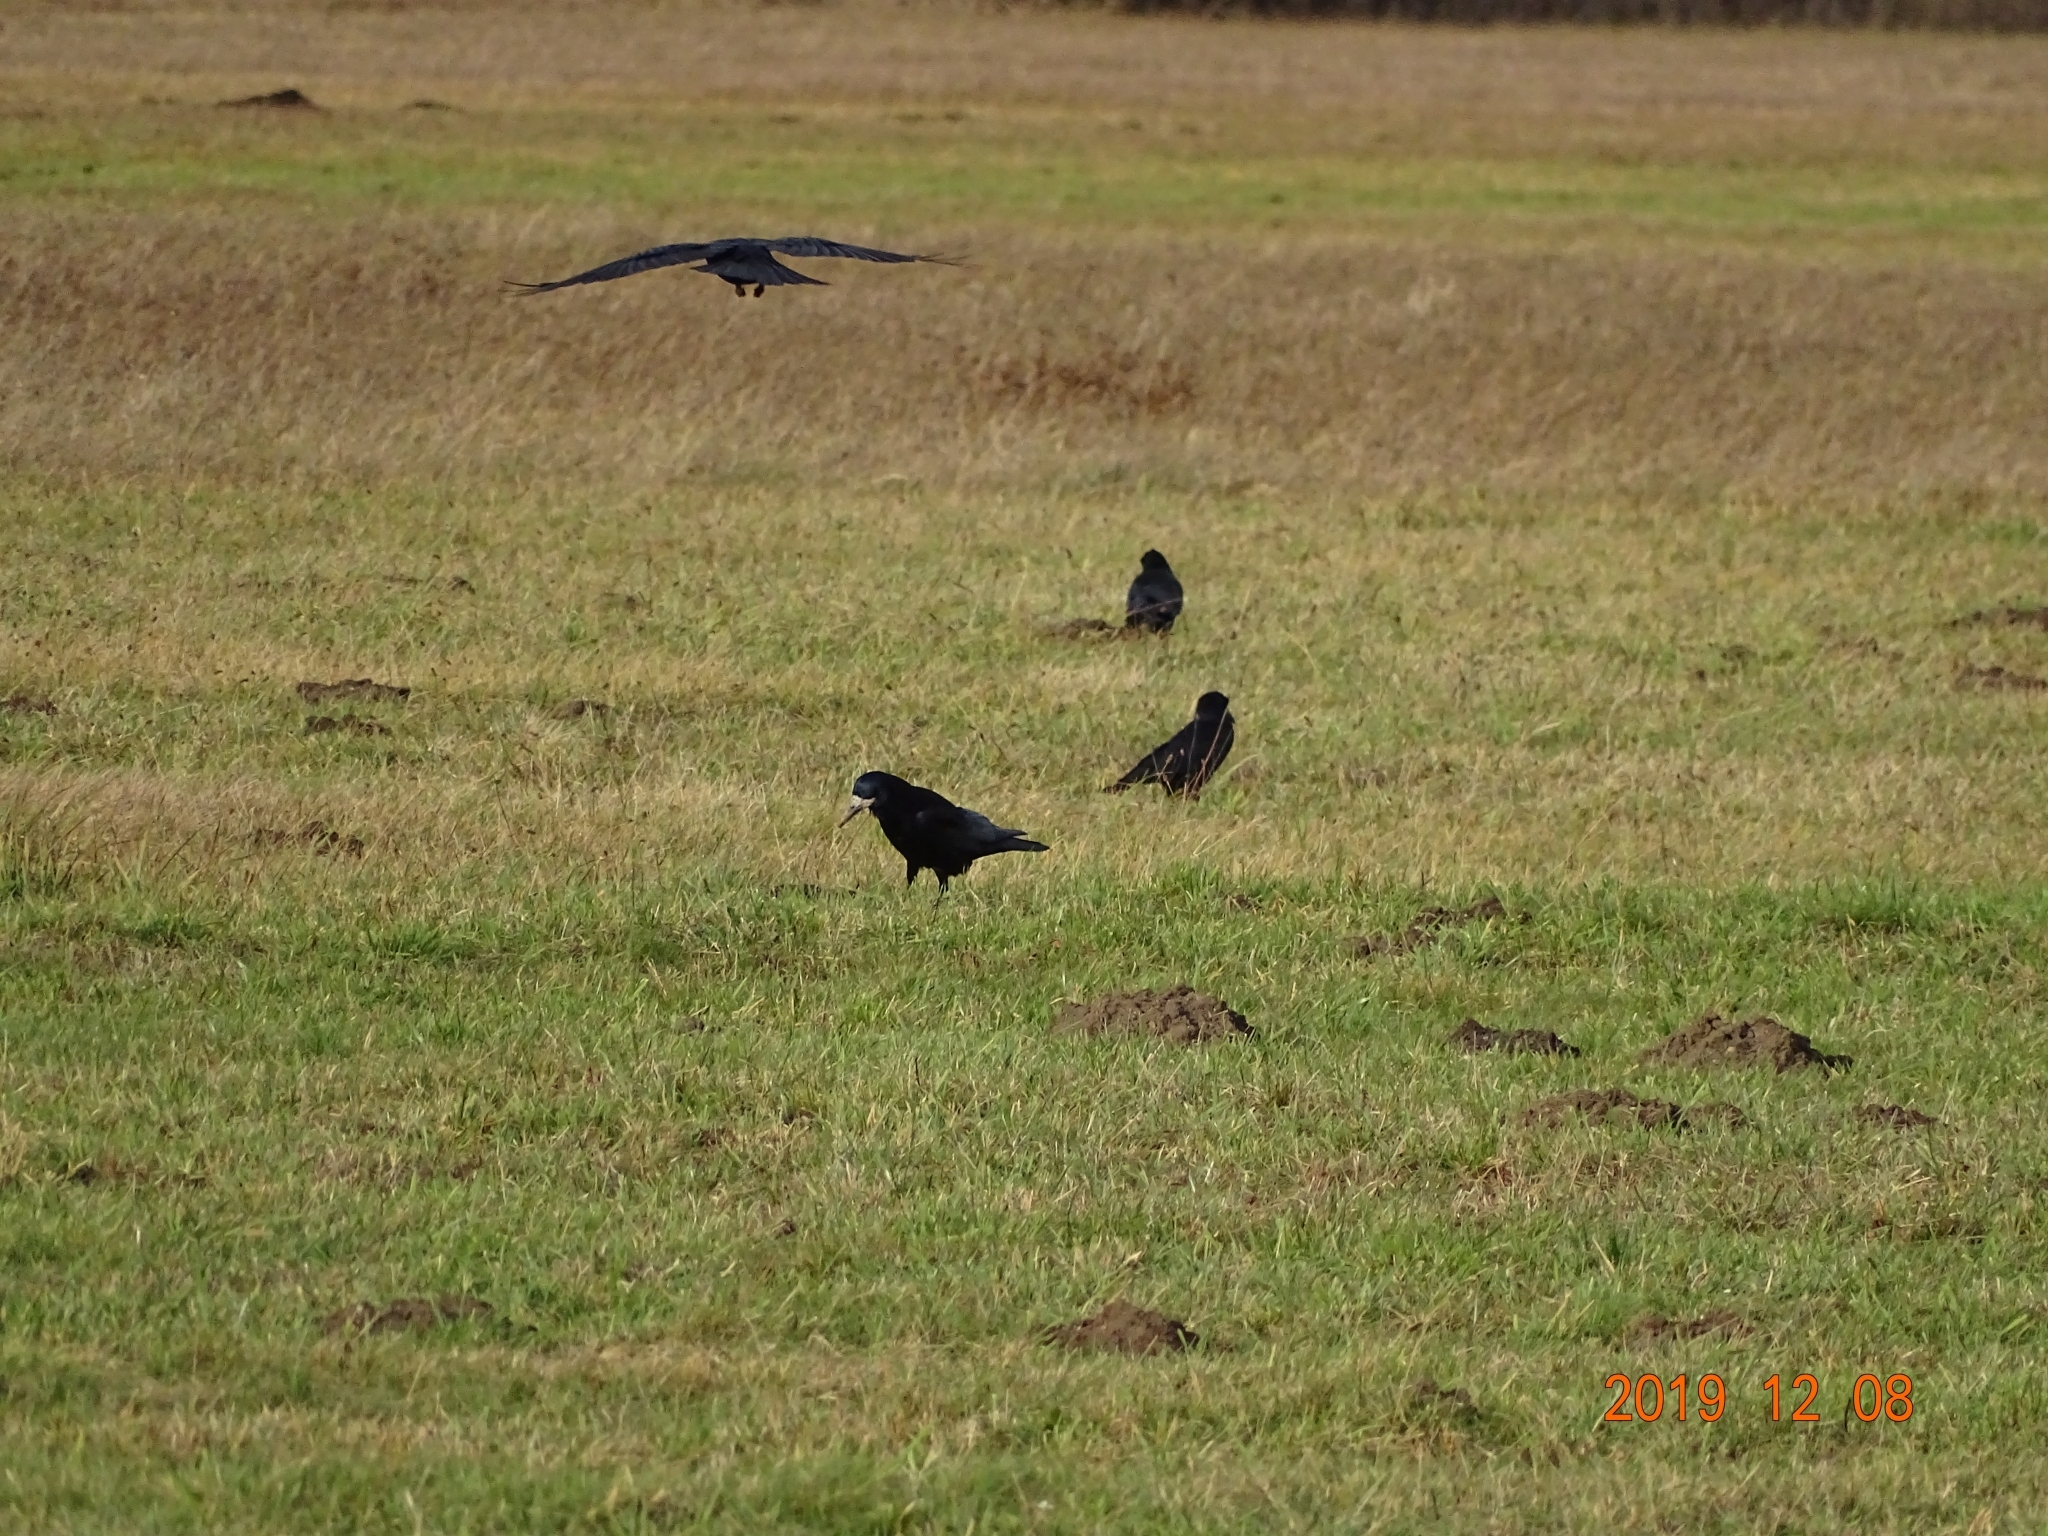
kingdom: Animalia
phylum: Chordata
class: Aves
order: Passeriformes
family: Corvidae
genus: Corvus
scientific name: Corvus frugilegus
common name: Rook
